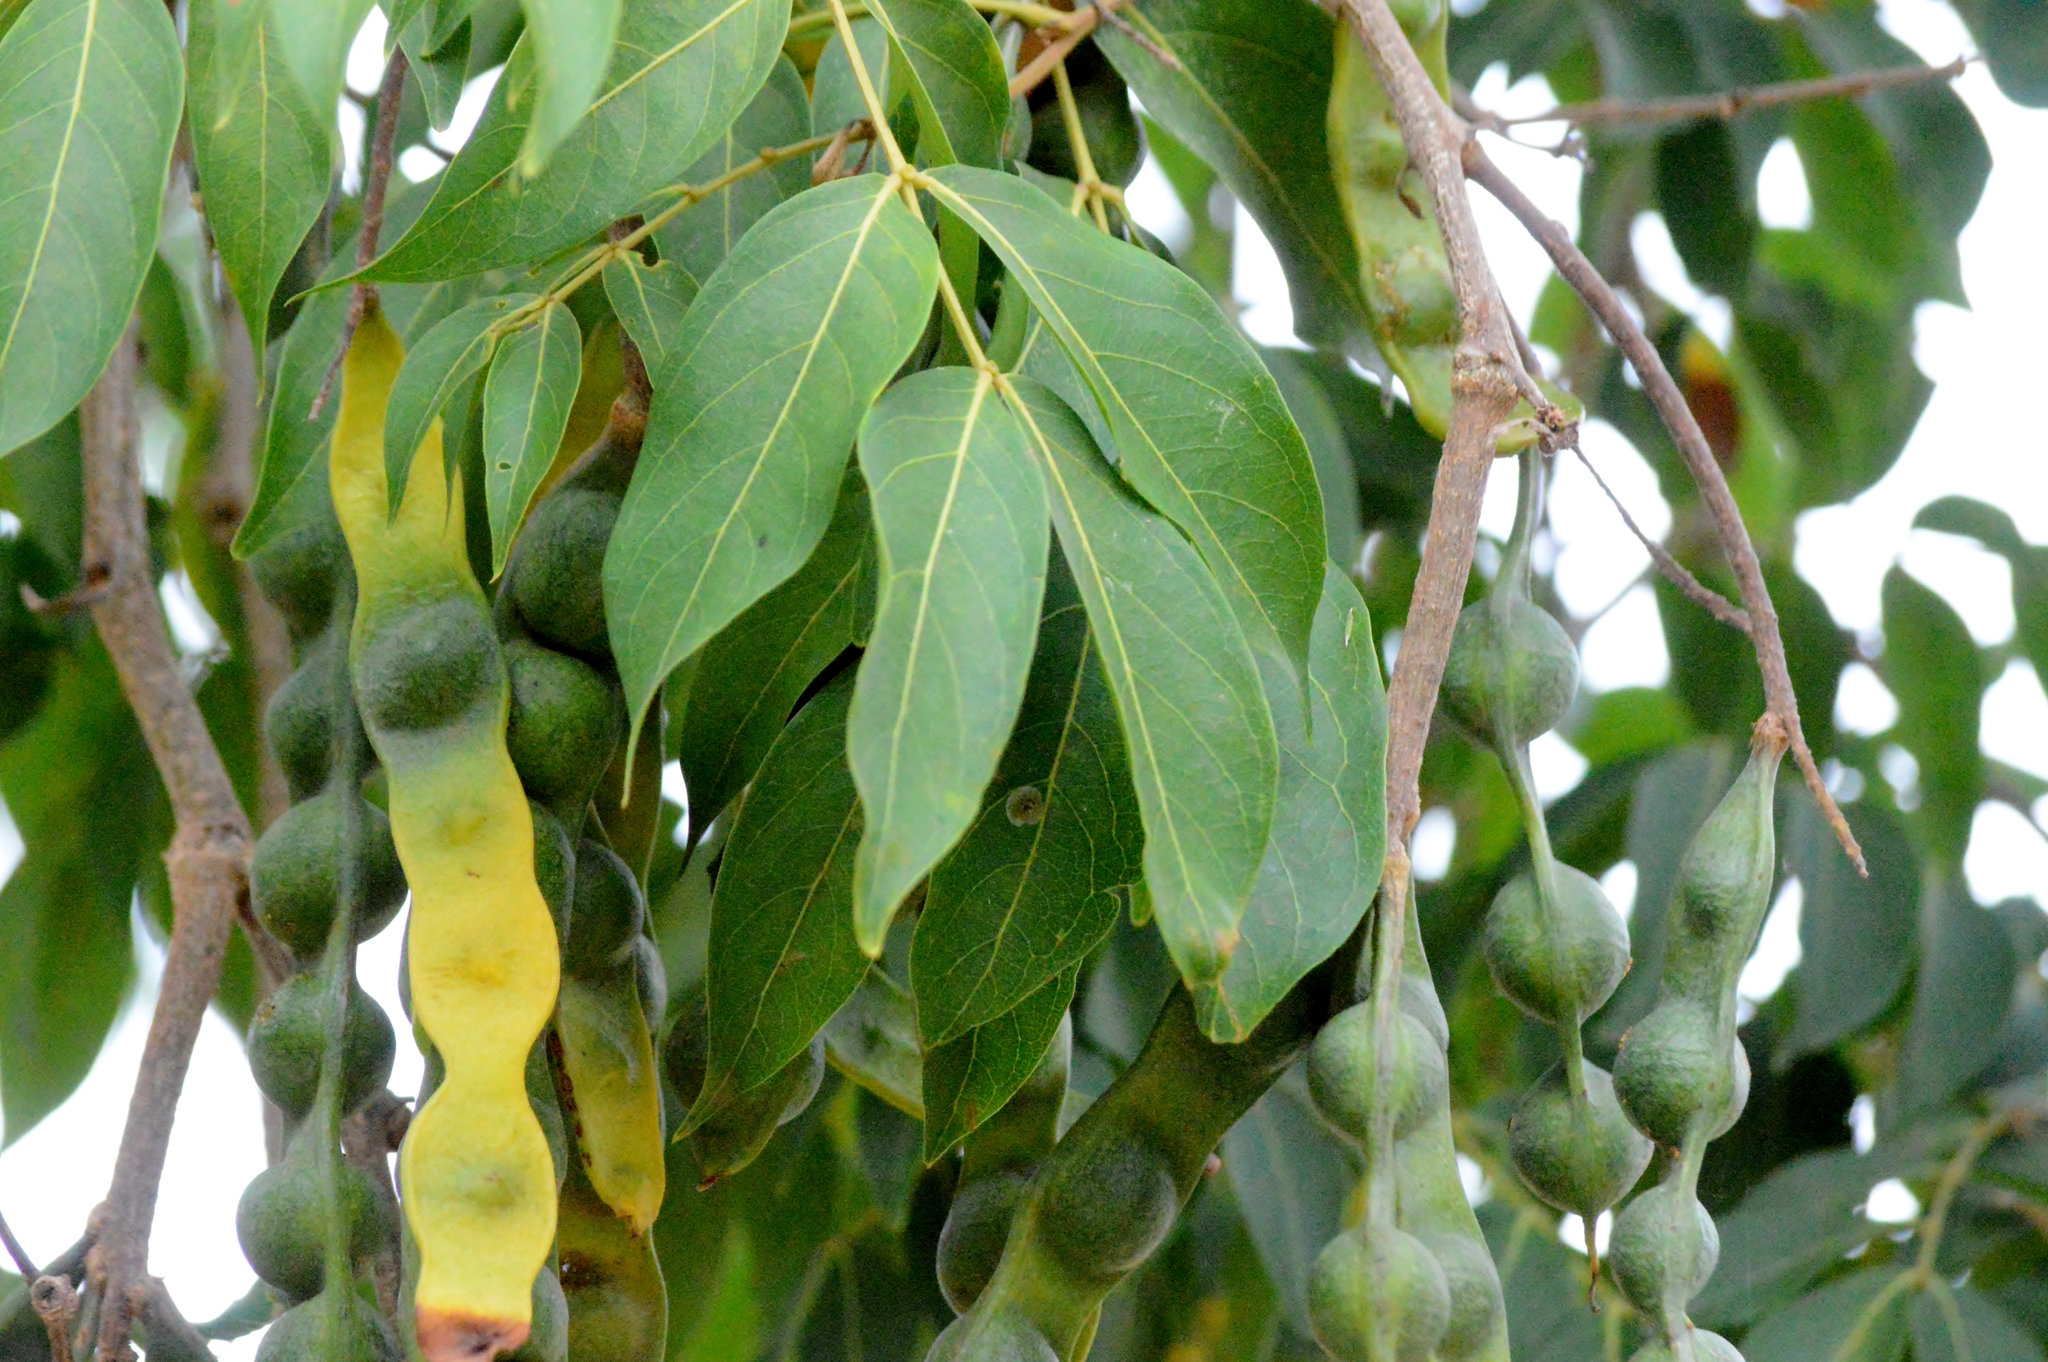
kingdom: Plantae
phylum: Tracheophyta
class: Magnoliopsida
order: Fabales
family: Fabaceae
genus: Inga
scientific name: Inga cylindrica
